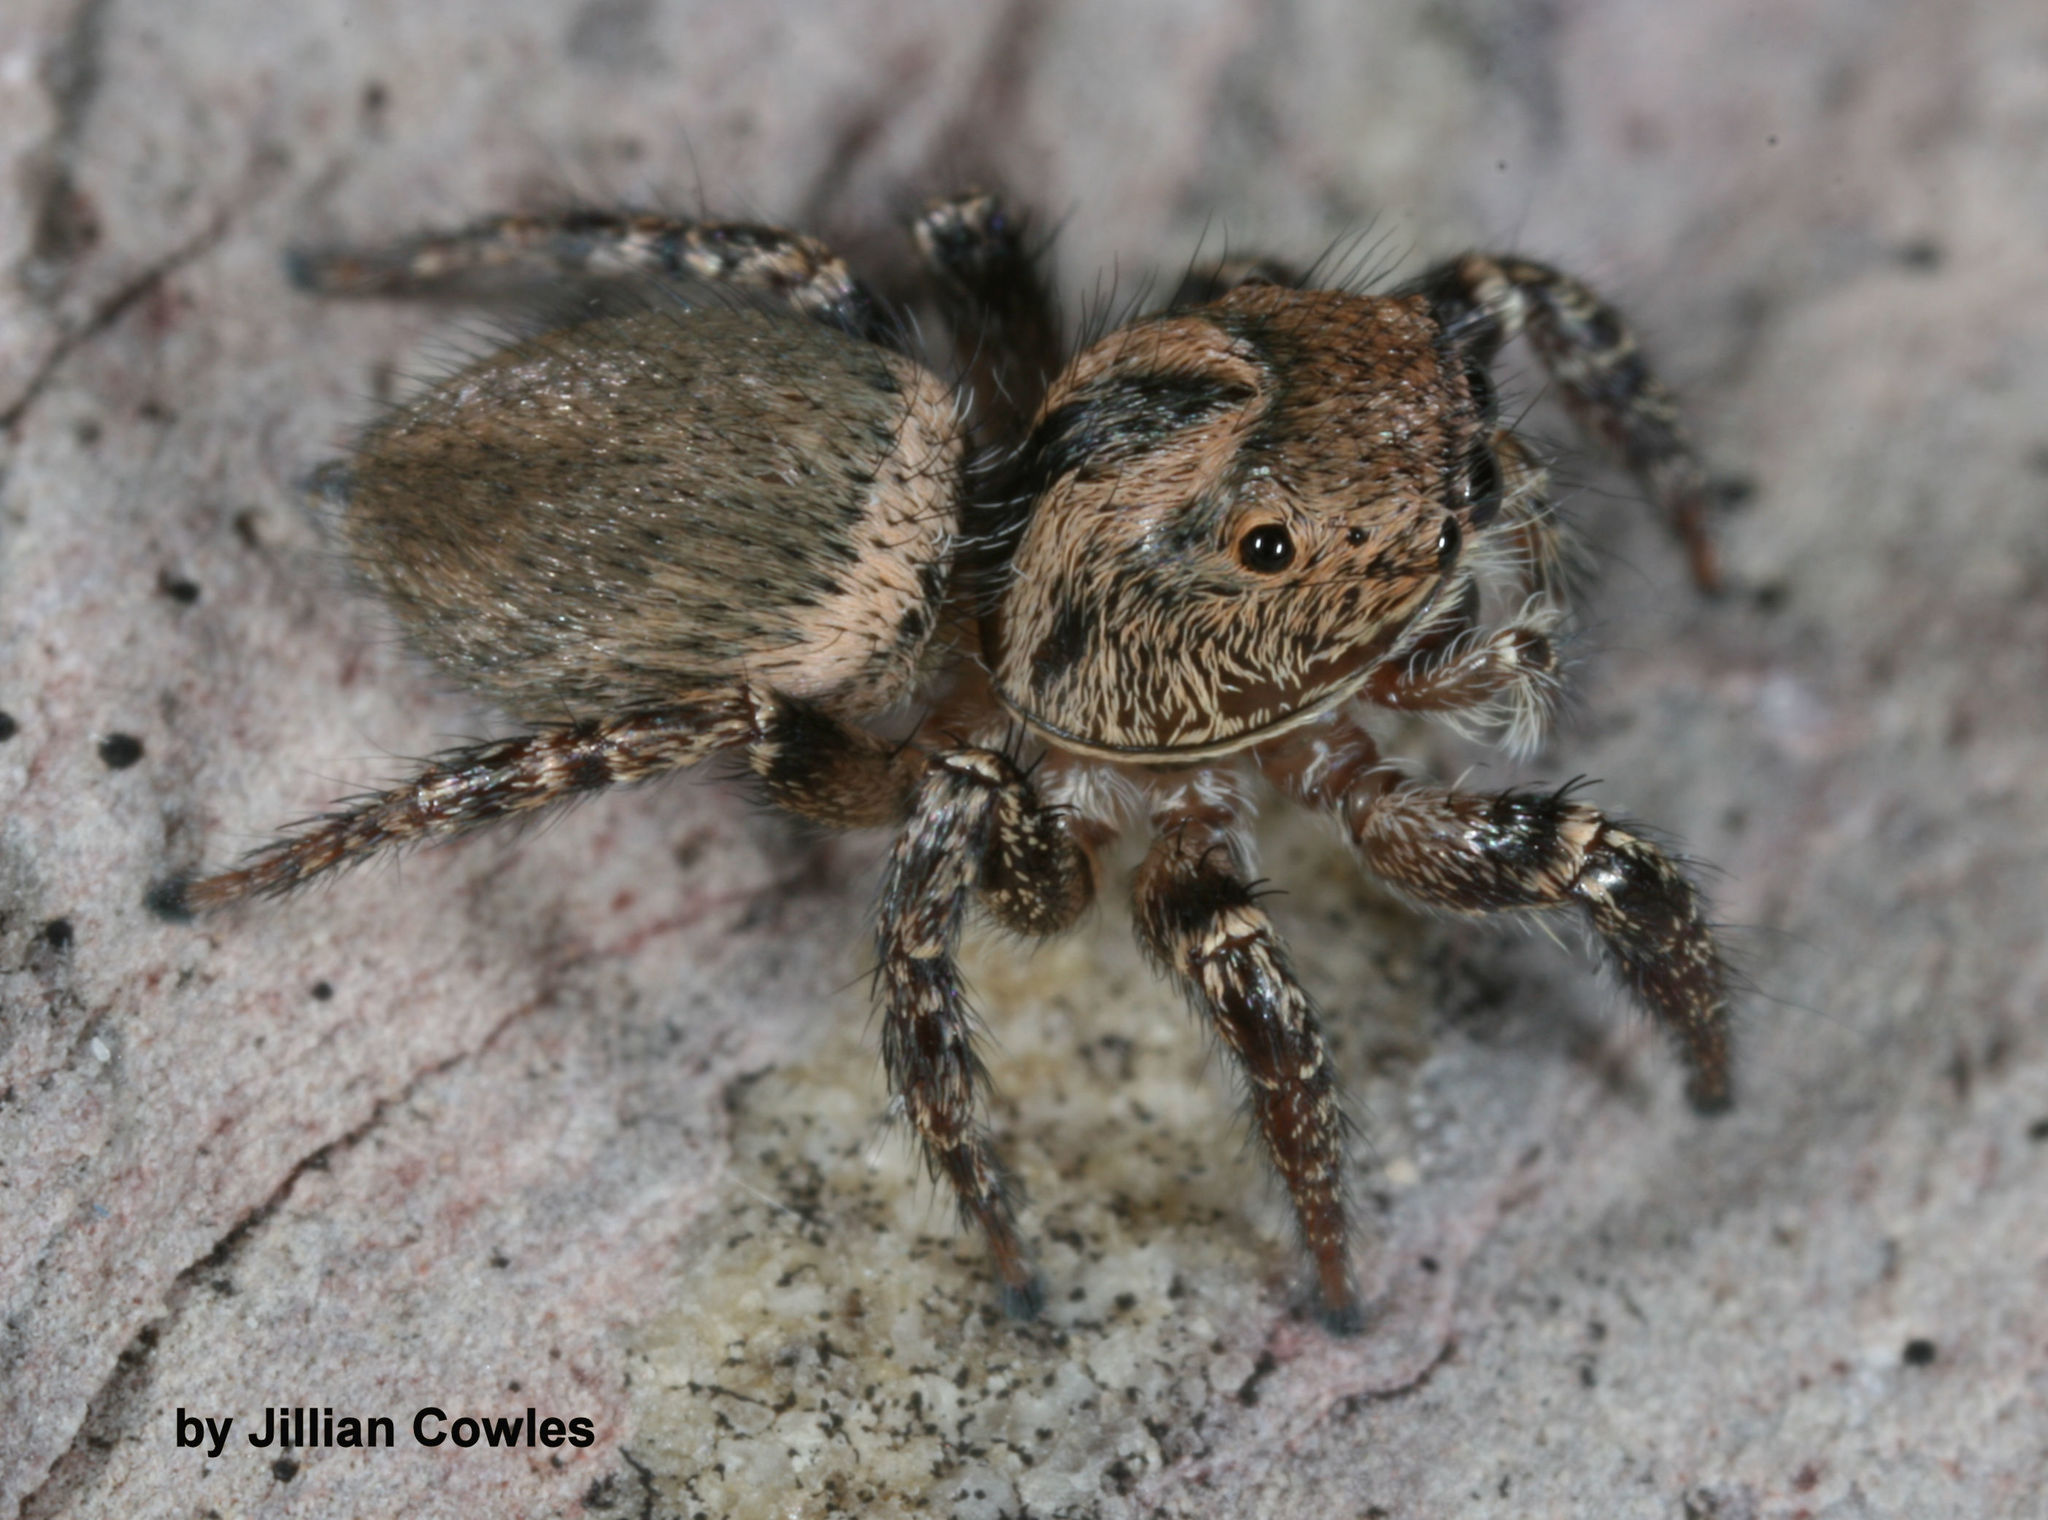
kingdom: Animalia
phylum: Arthropoda
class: Arachnida
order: Araneae
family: Salticidae
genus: Habronattus
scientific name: Habronattus hallani
